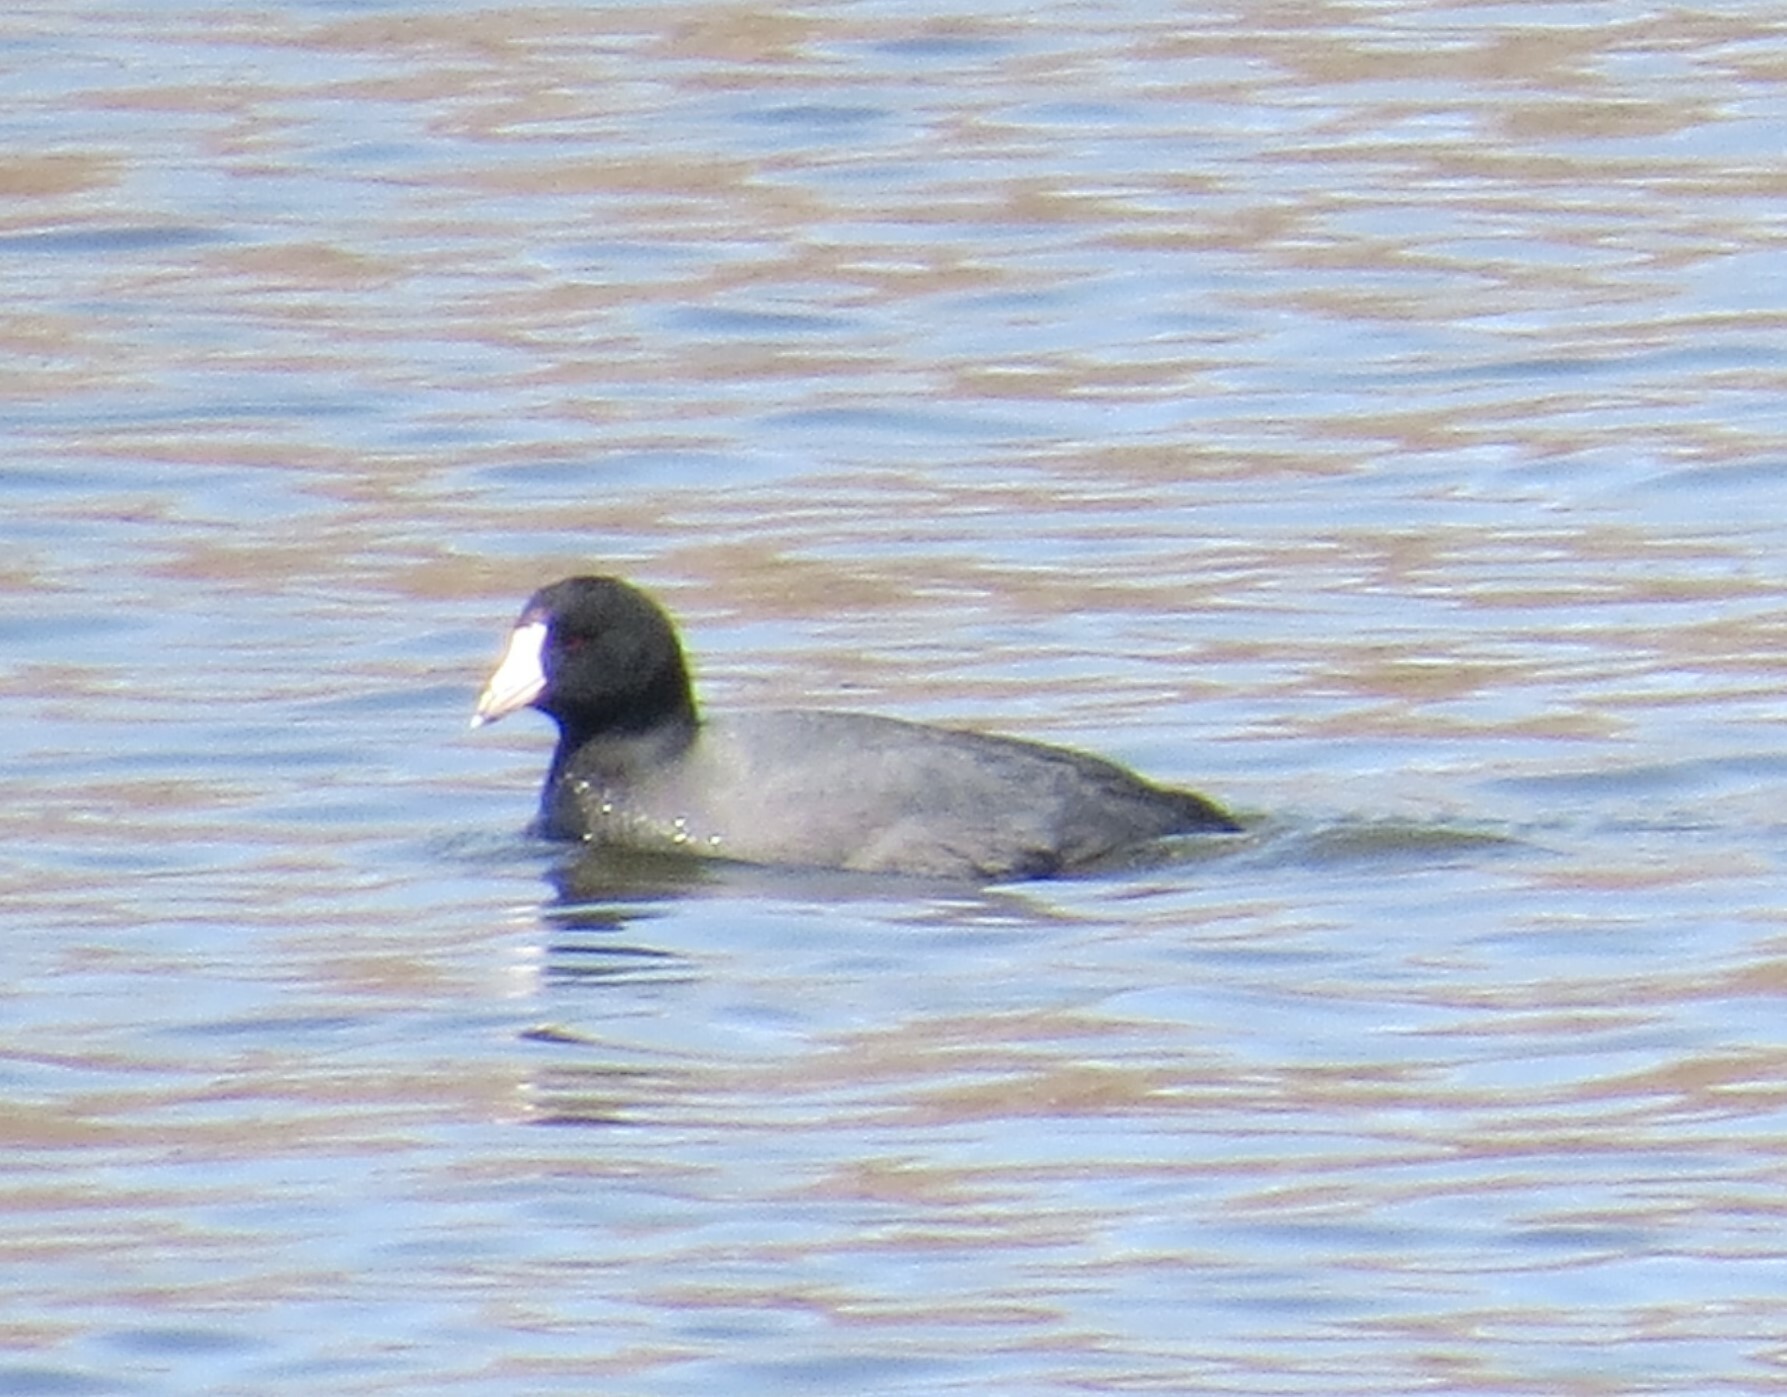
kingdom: Animalia
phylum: Chordata
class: Aves
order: Gruiformes
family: Rallidae
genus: Fulica
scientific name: Fulica americana
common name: American coot
